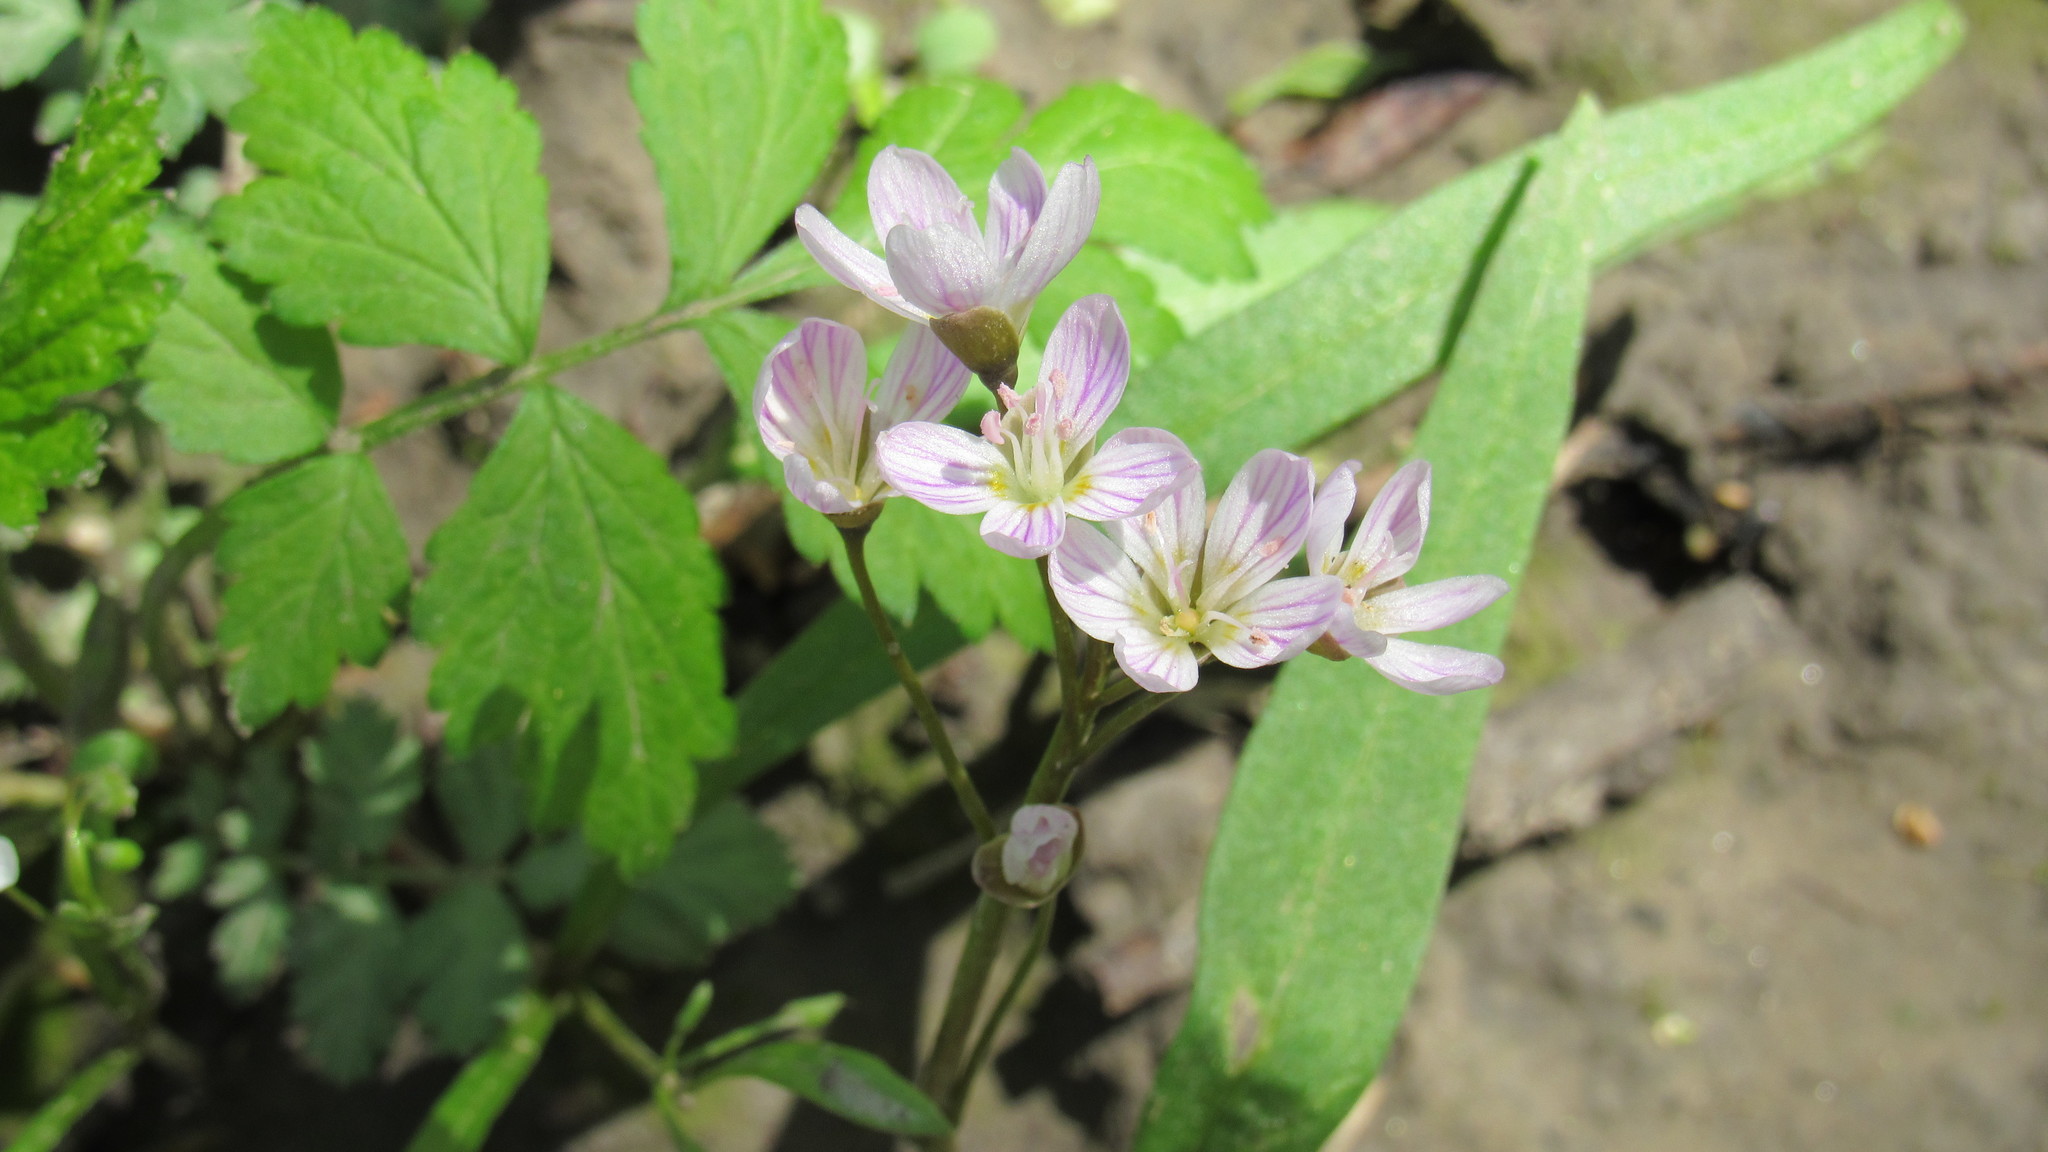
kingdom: Plantae
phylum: Tracheophyta
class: Magnoliopsida
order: Caryophyllales
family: Montiaceae
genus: Claytonia
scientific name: Claytonia virginica
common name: Virginia springbeauty
